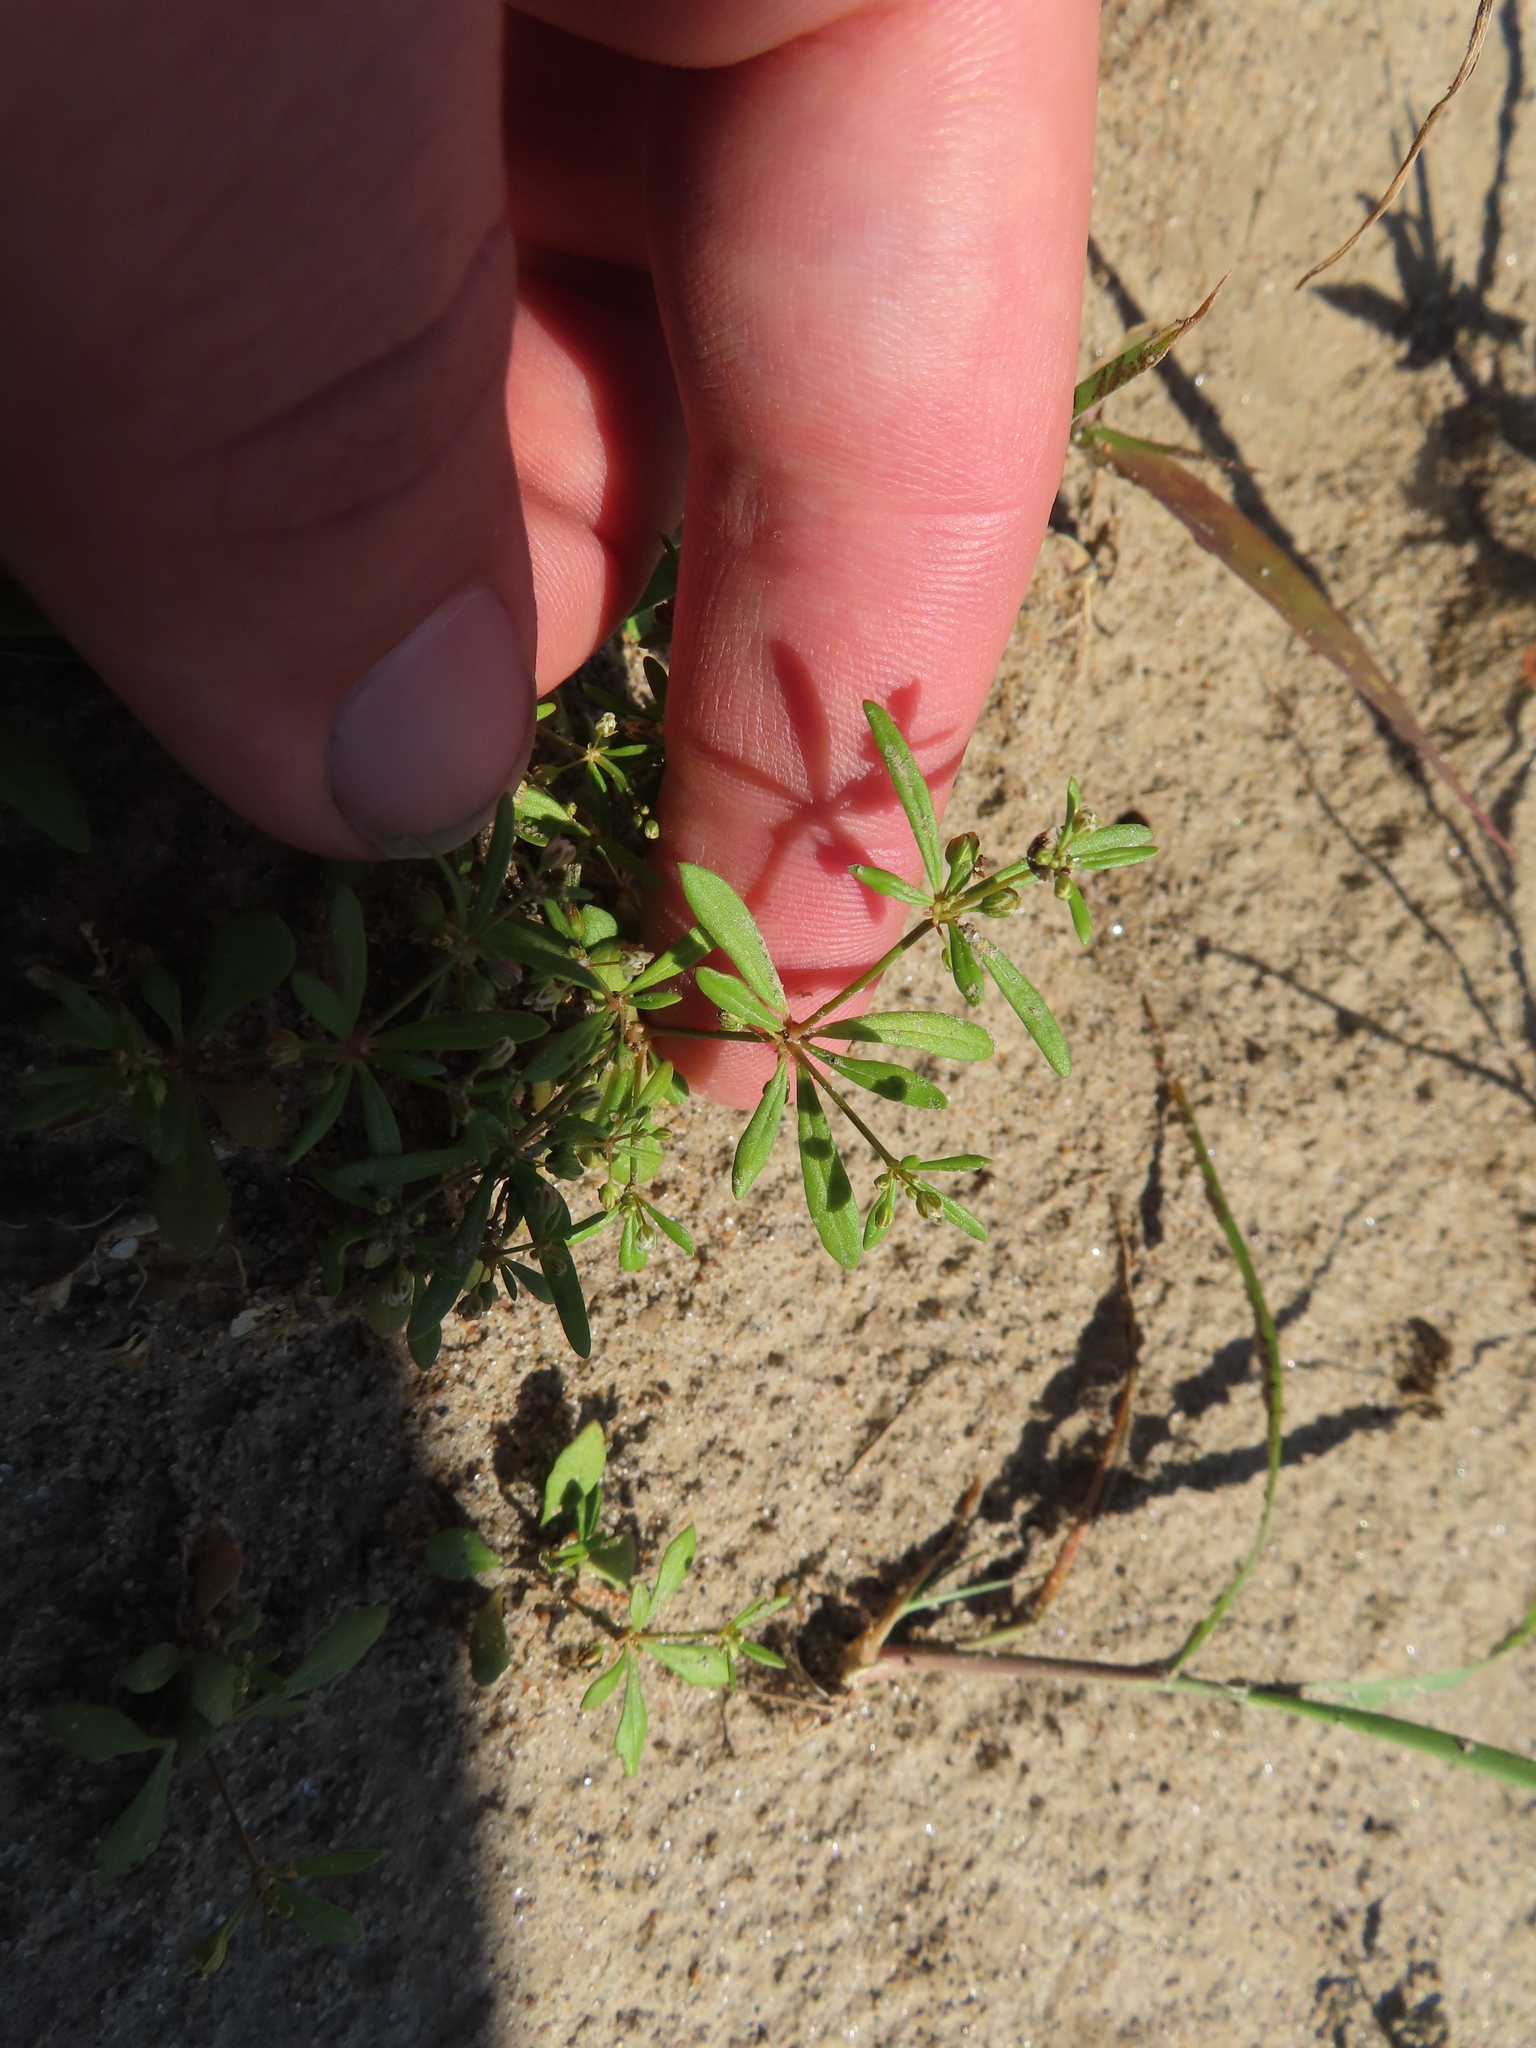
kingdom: Plantae
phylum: Tracheophyta
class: Magnoliopsida
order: Caryophyllales
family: Molluginaceae
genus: Mollugo
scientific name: Mollugo verticillata
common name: Green carpetweed
